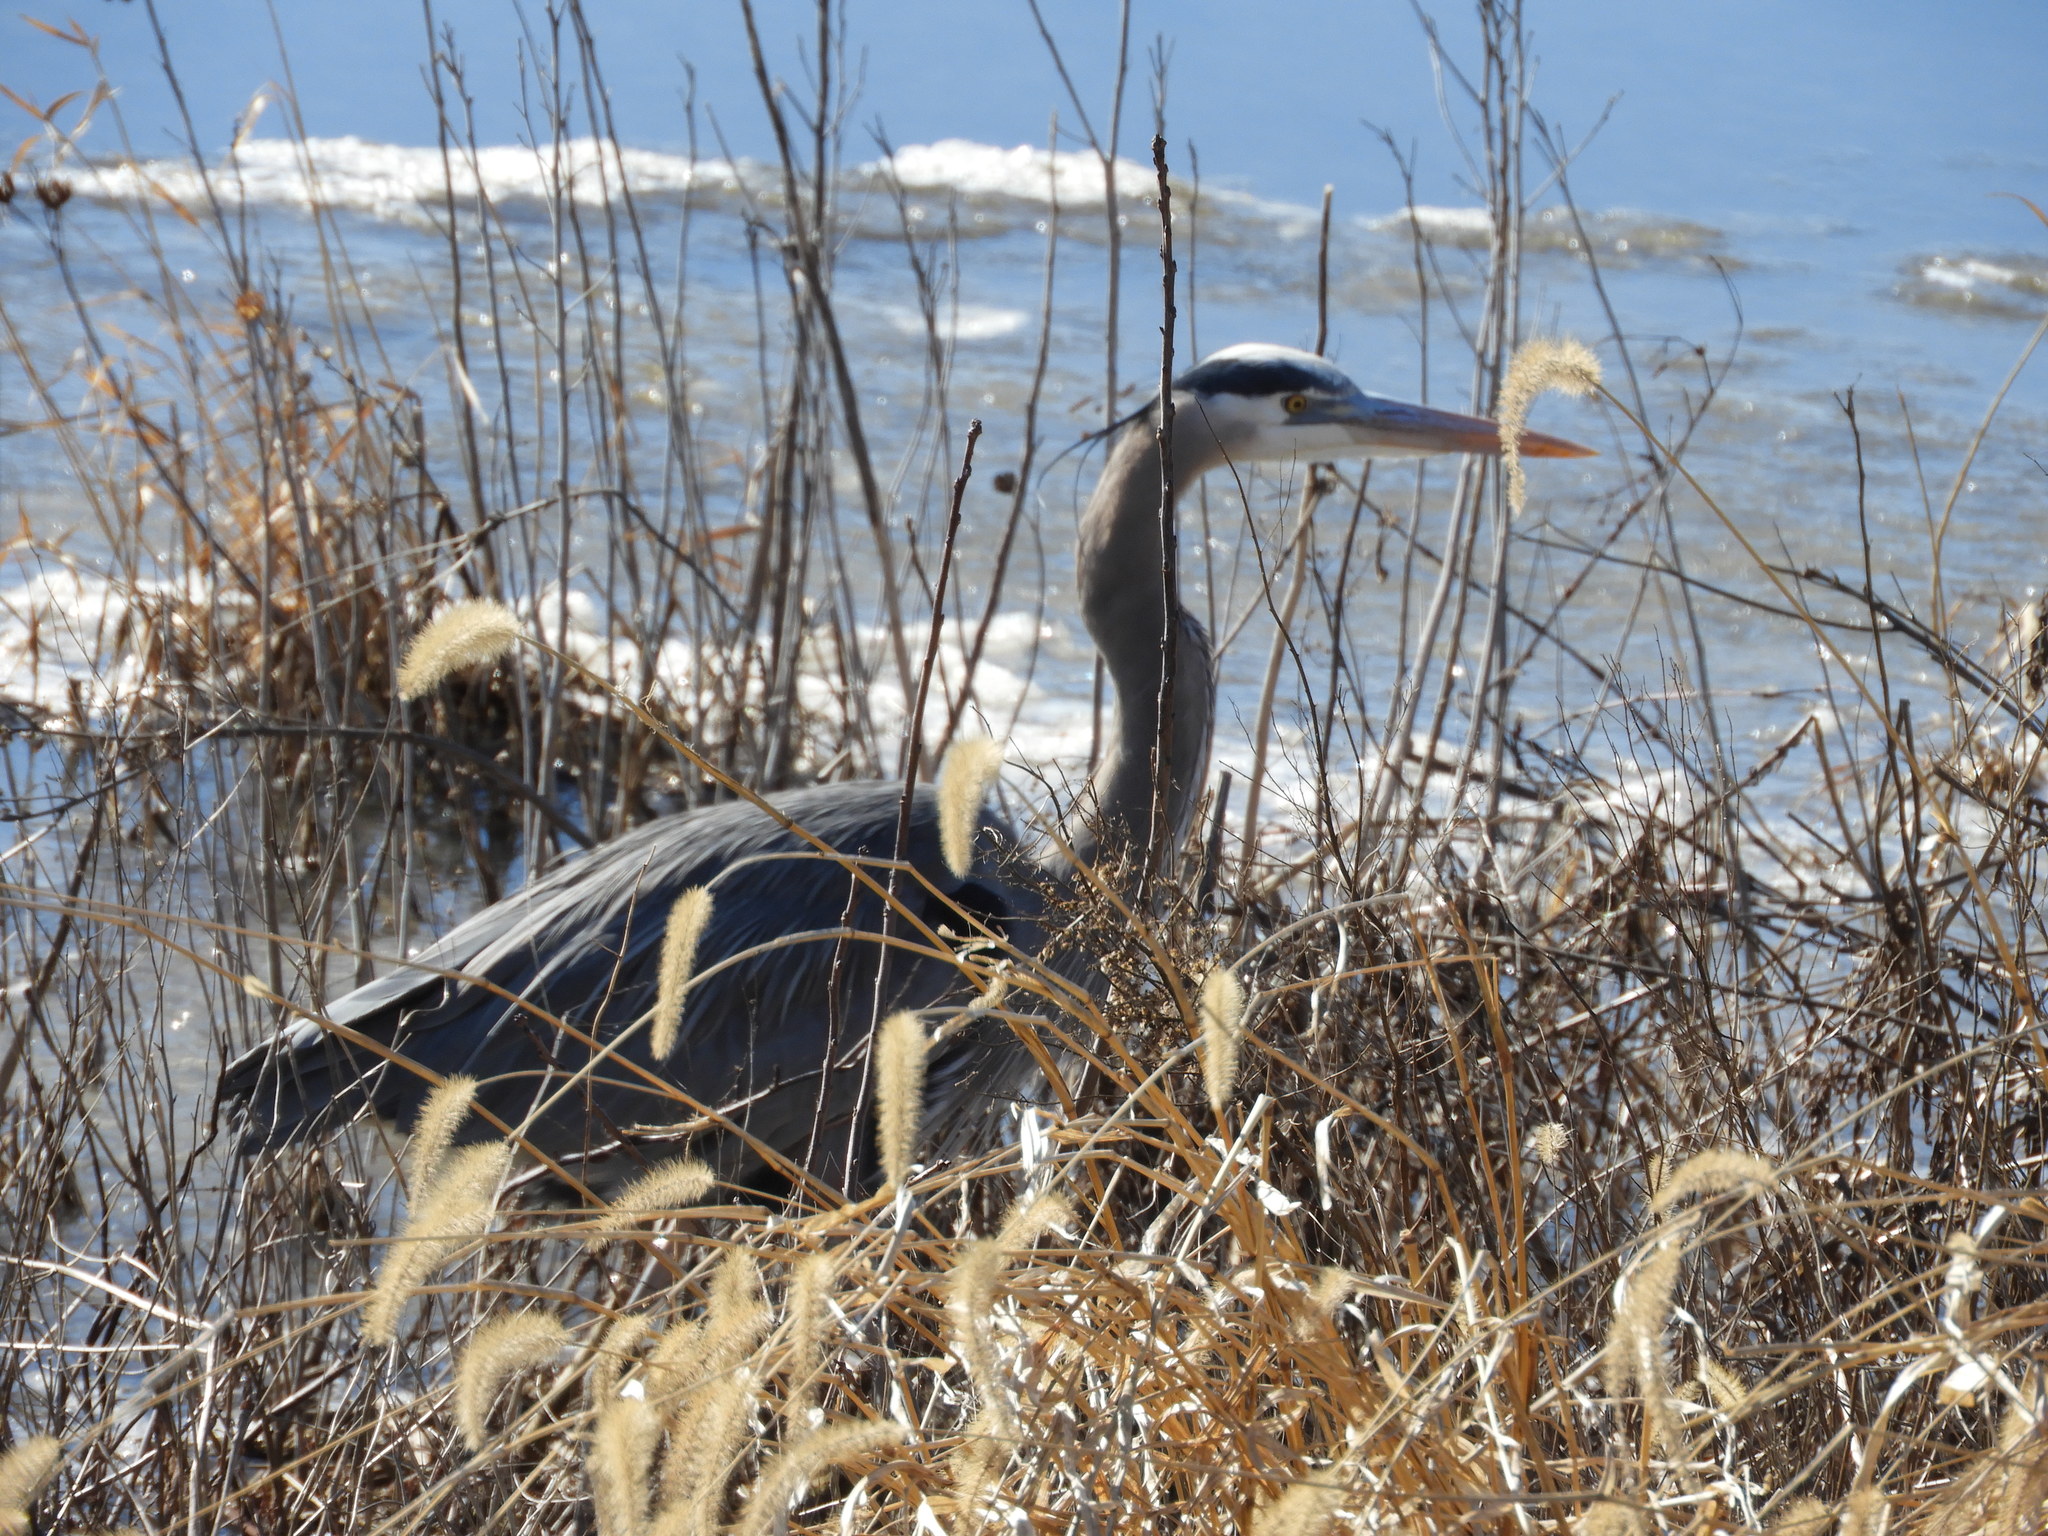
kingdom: Animalia
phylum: Chordata
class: Aves
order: Pelecaniformes
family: Ardeidae
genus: Ardea
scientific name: Ardea herodias
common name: Great blue heron
